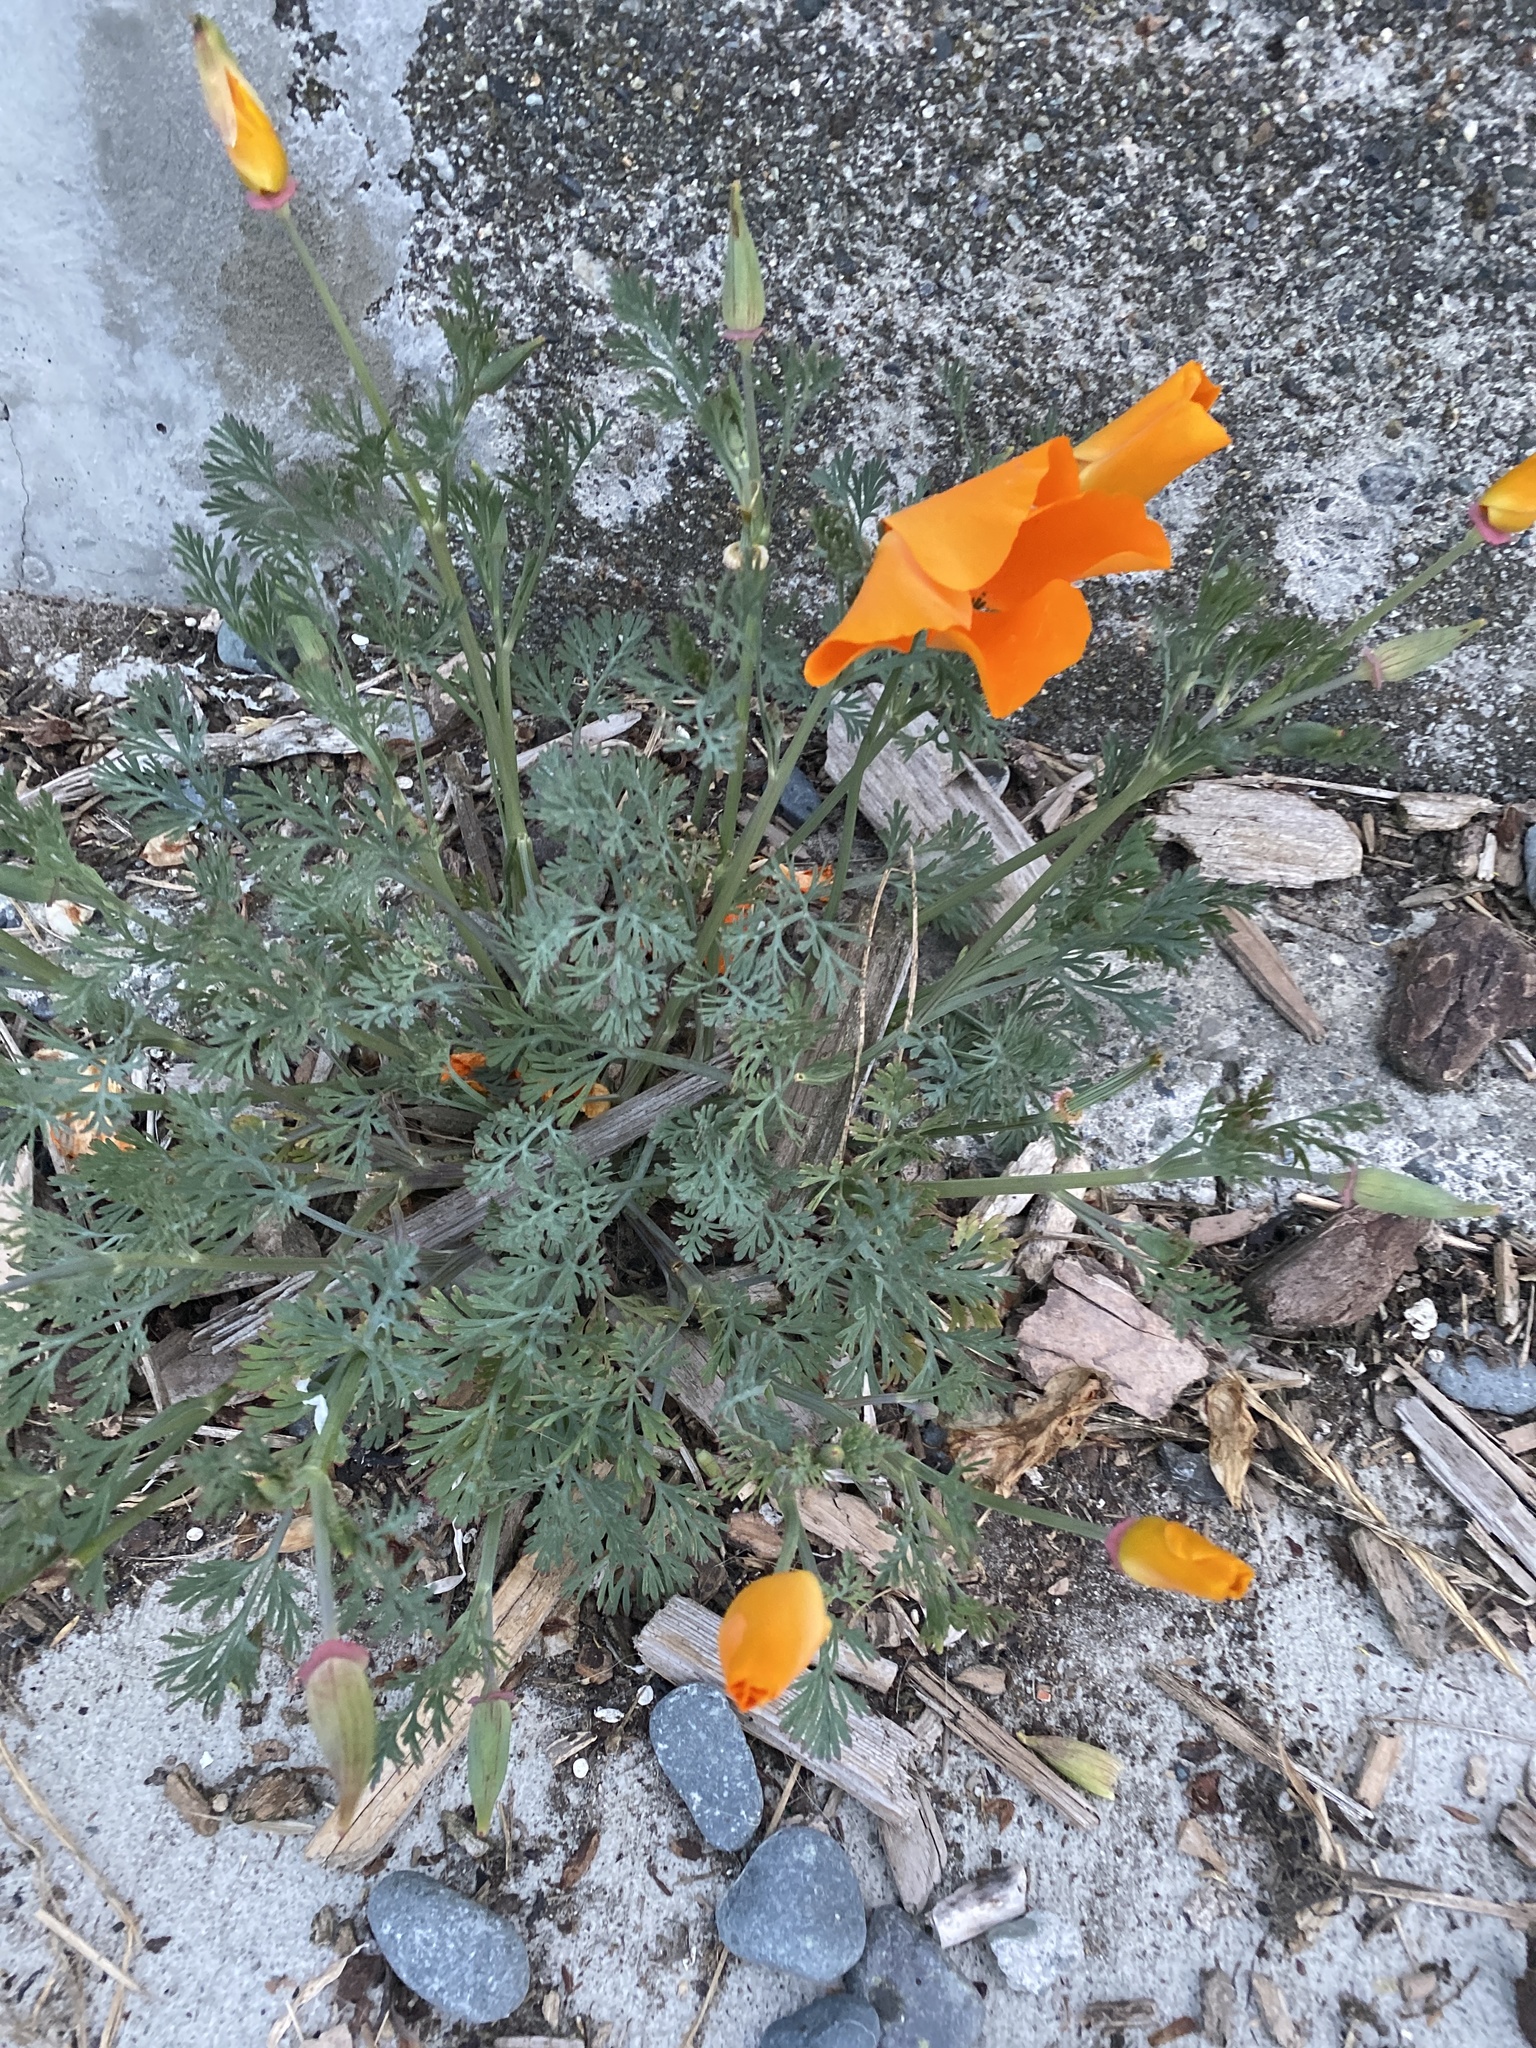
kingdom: Plantae
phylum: Tracheophyta
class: Magnoliopsida
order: Ranunculales
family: Papaveraceae
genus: Eschscholzia
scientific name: Eschscholzia californica
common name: California poppy
